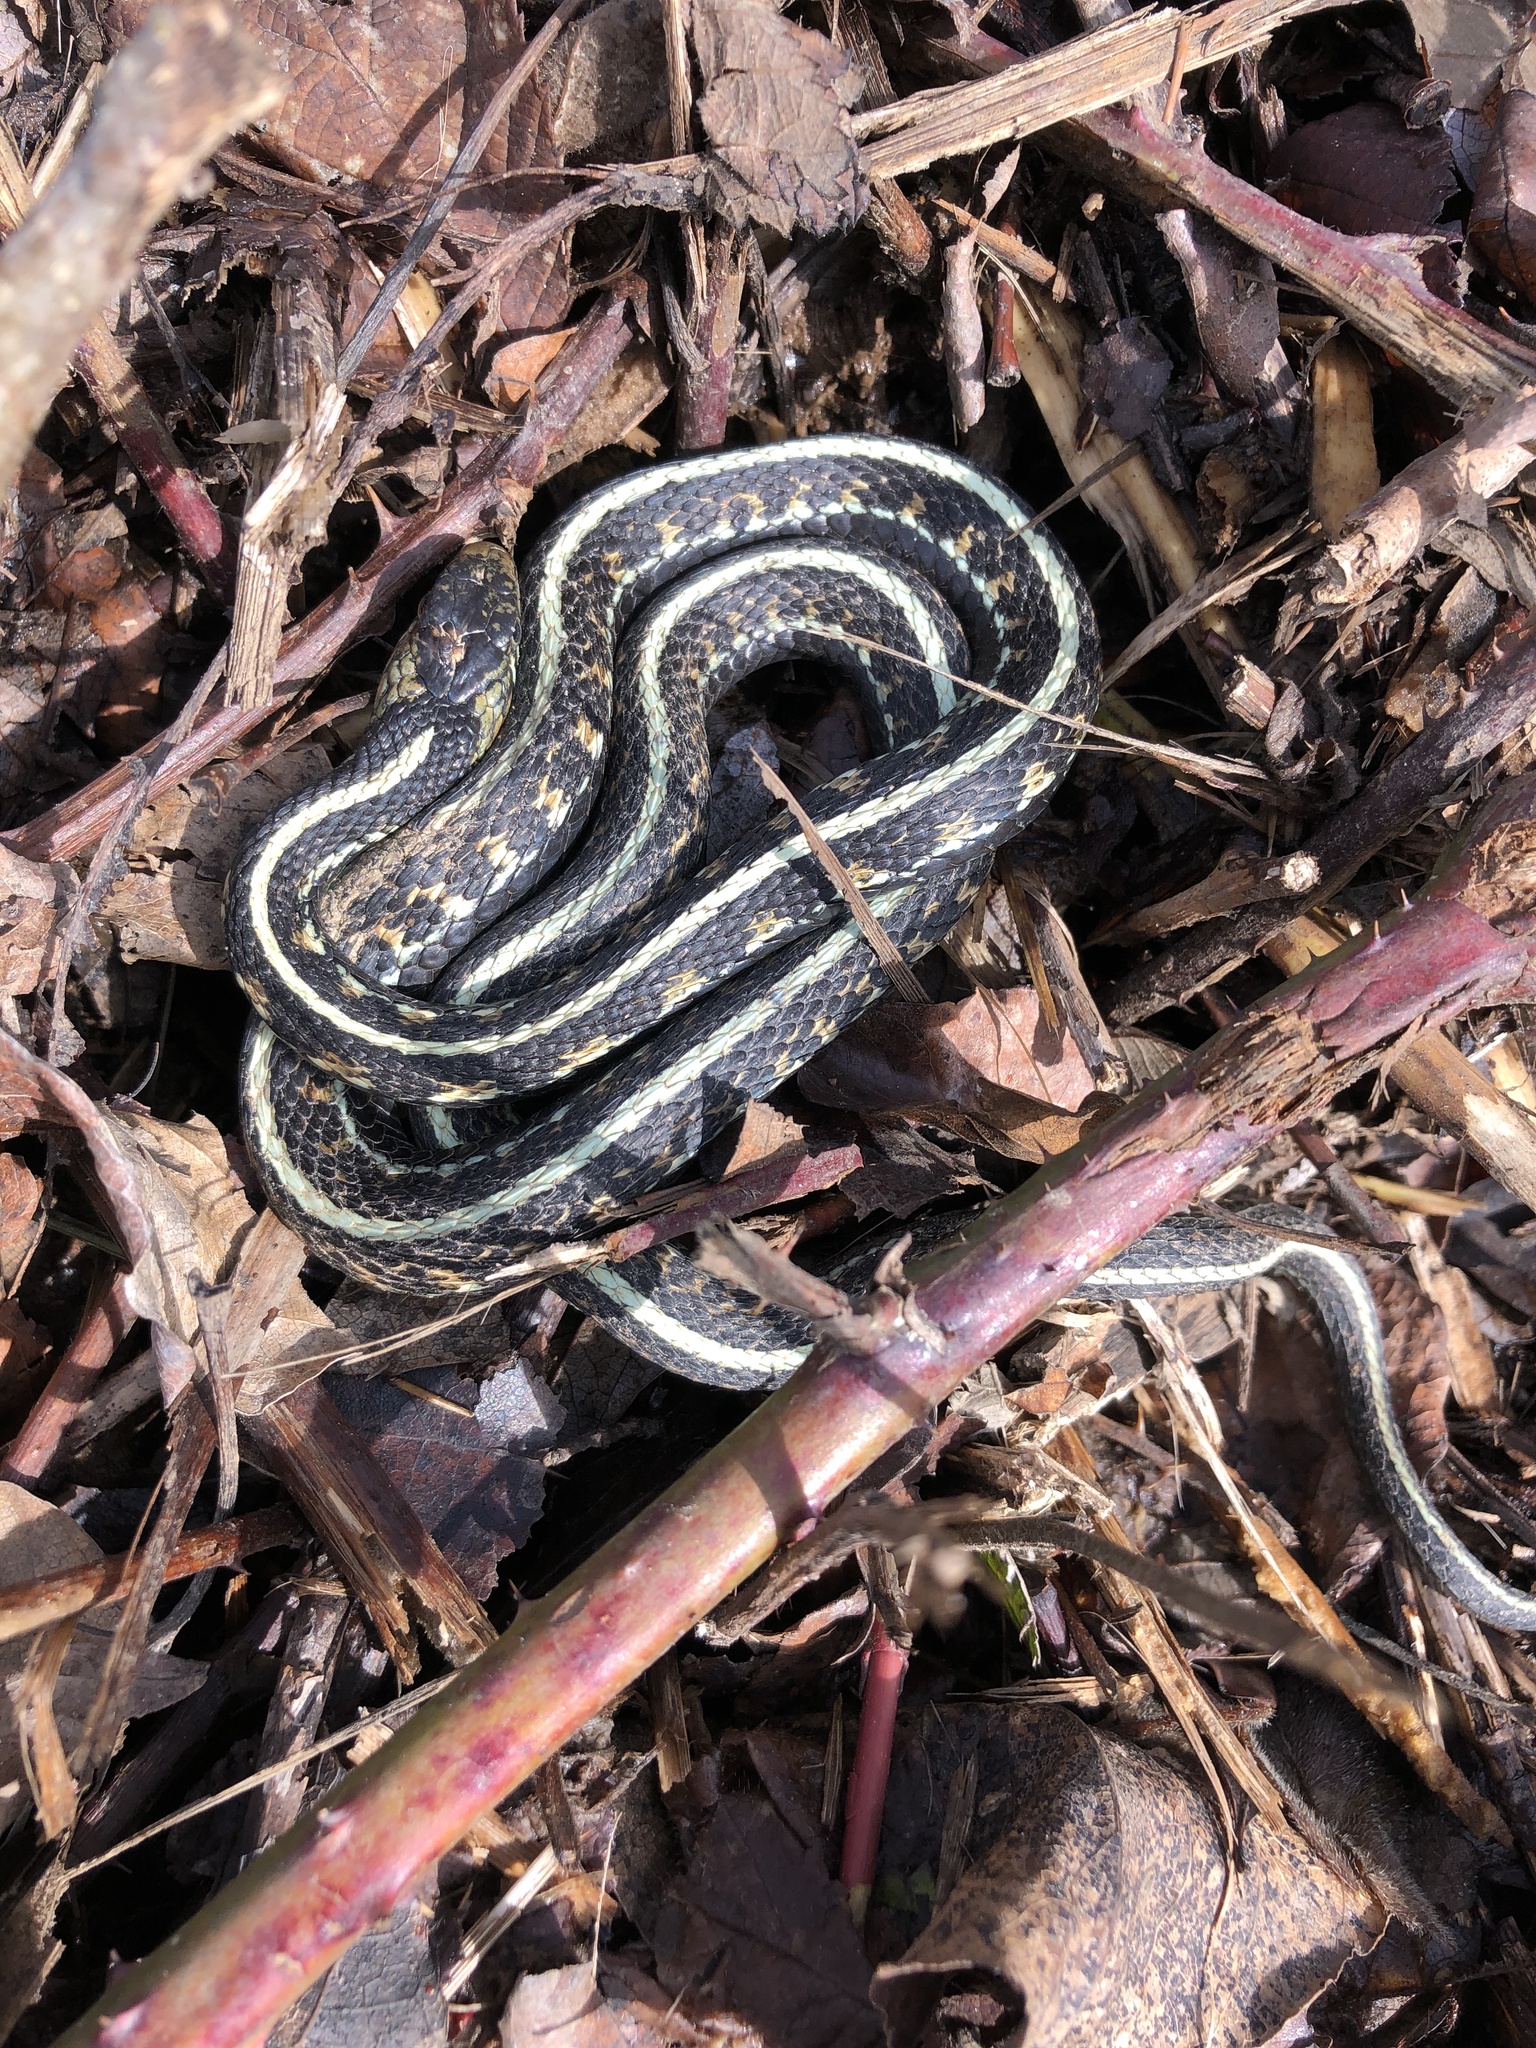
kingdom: Animalia
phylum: Chordata
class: Squamata
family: Colubridae
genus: Thamnophis
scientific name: Thamnophis sirtalis
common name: Common garter snake
